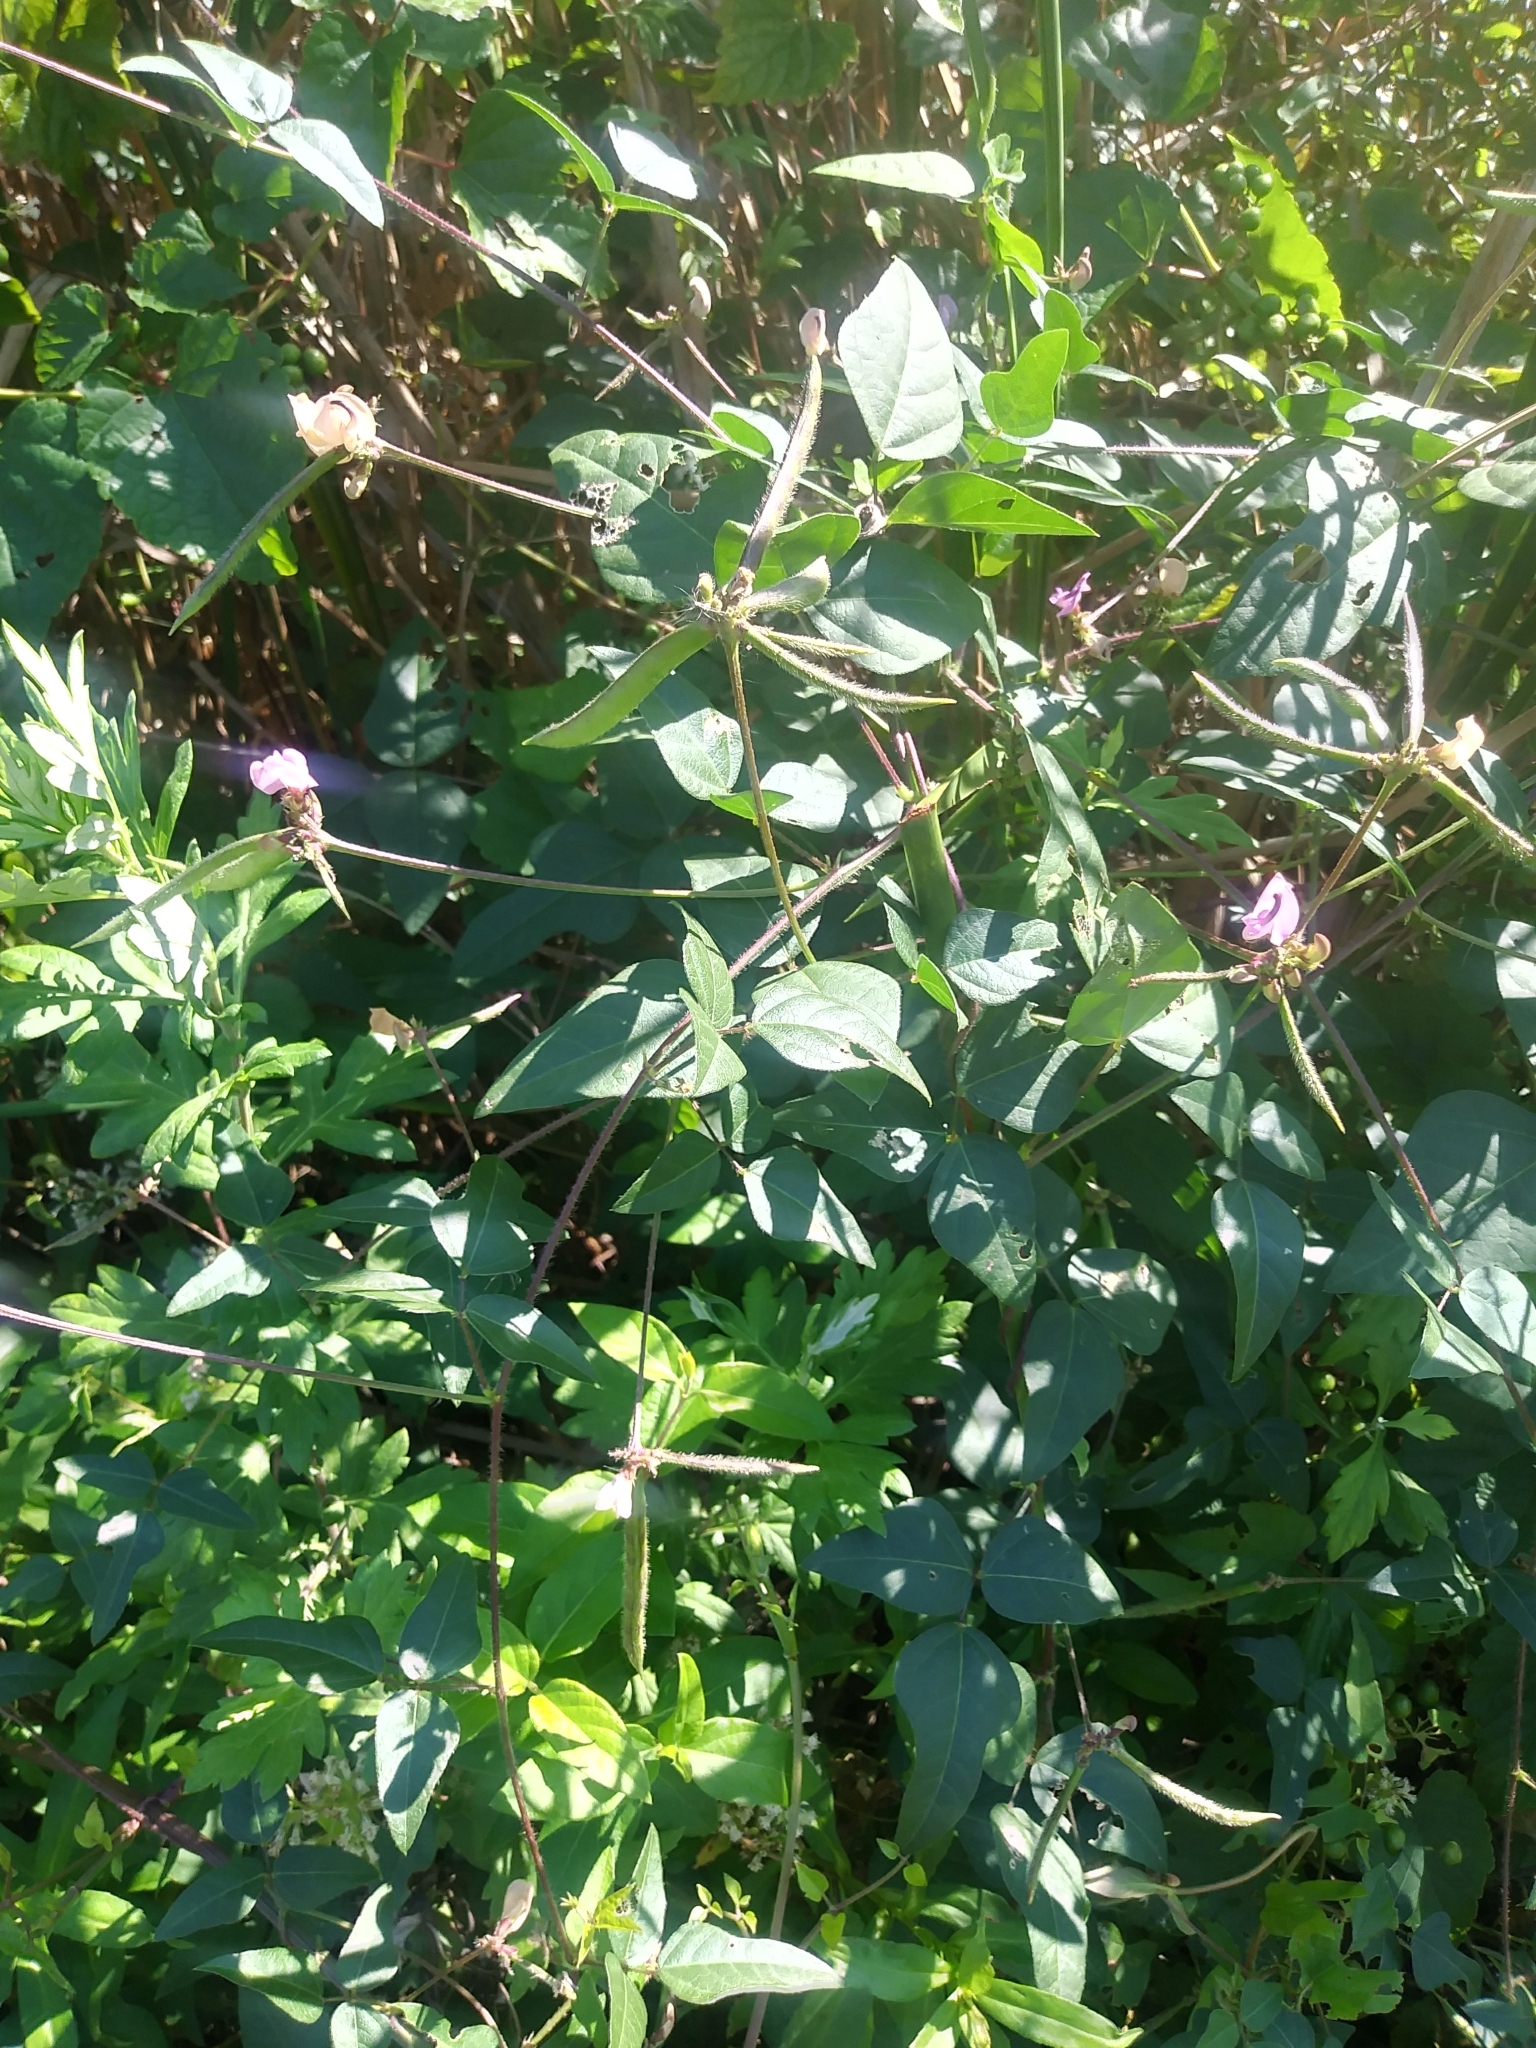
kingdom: Plantae
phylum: Tracheophyta
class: Magnoliopsida
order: Fabales
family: Fabaceae
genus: Strophostyles
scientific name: Strophostyles helvola
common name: Trailing wild bean
